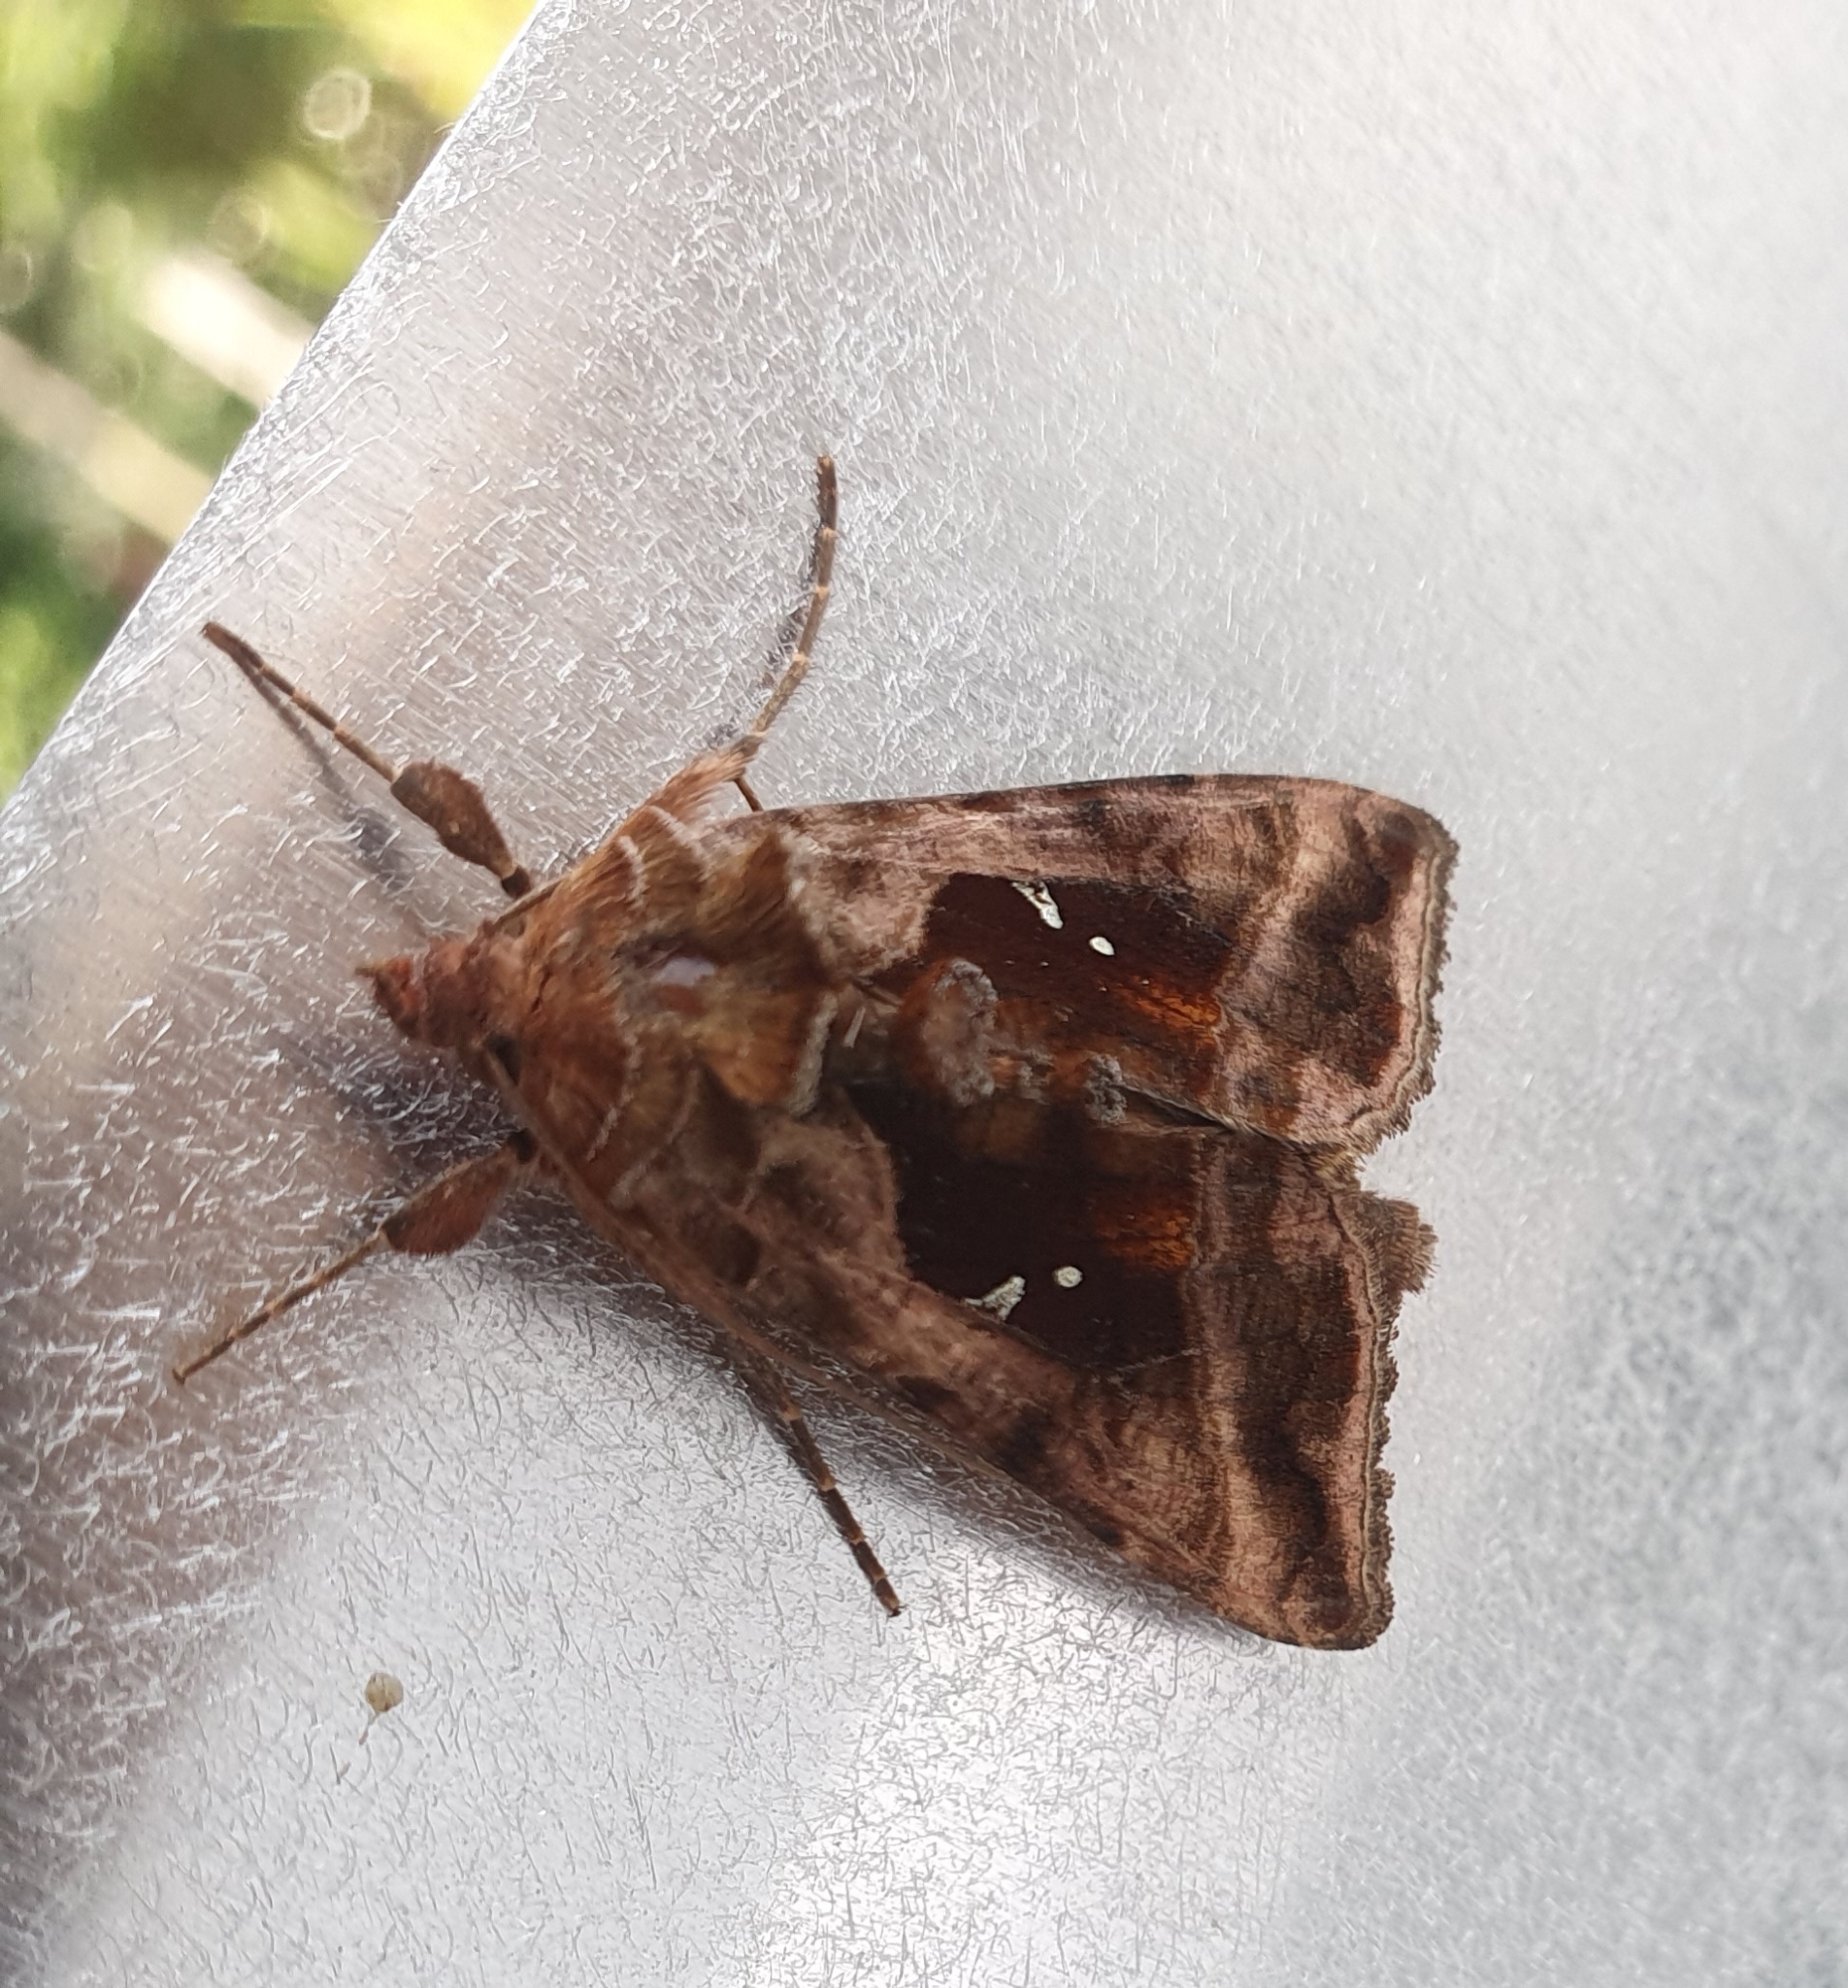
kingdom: Animalia
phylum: Arthropoda
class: Insecta
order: Lepidoptera
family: Noctuidae
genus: Autographa
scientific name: Autographa jota
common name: Plain golden y
